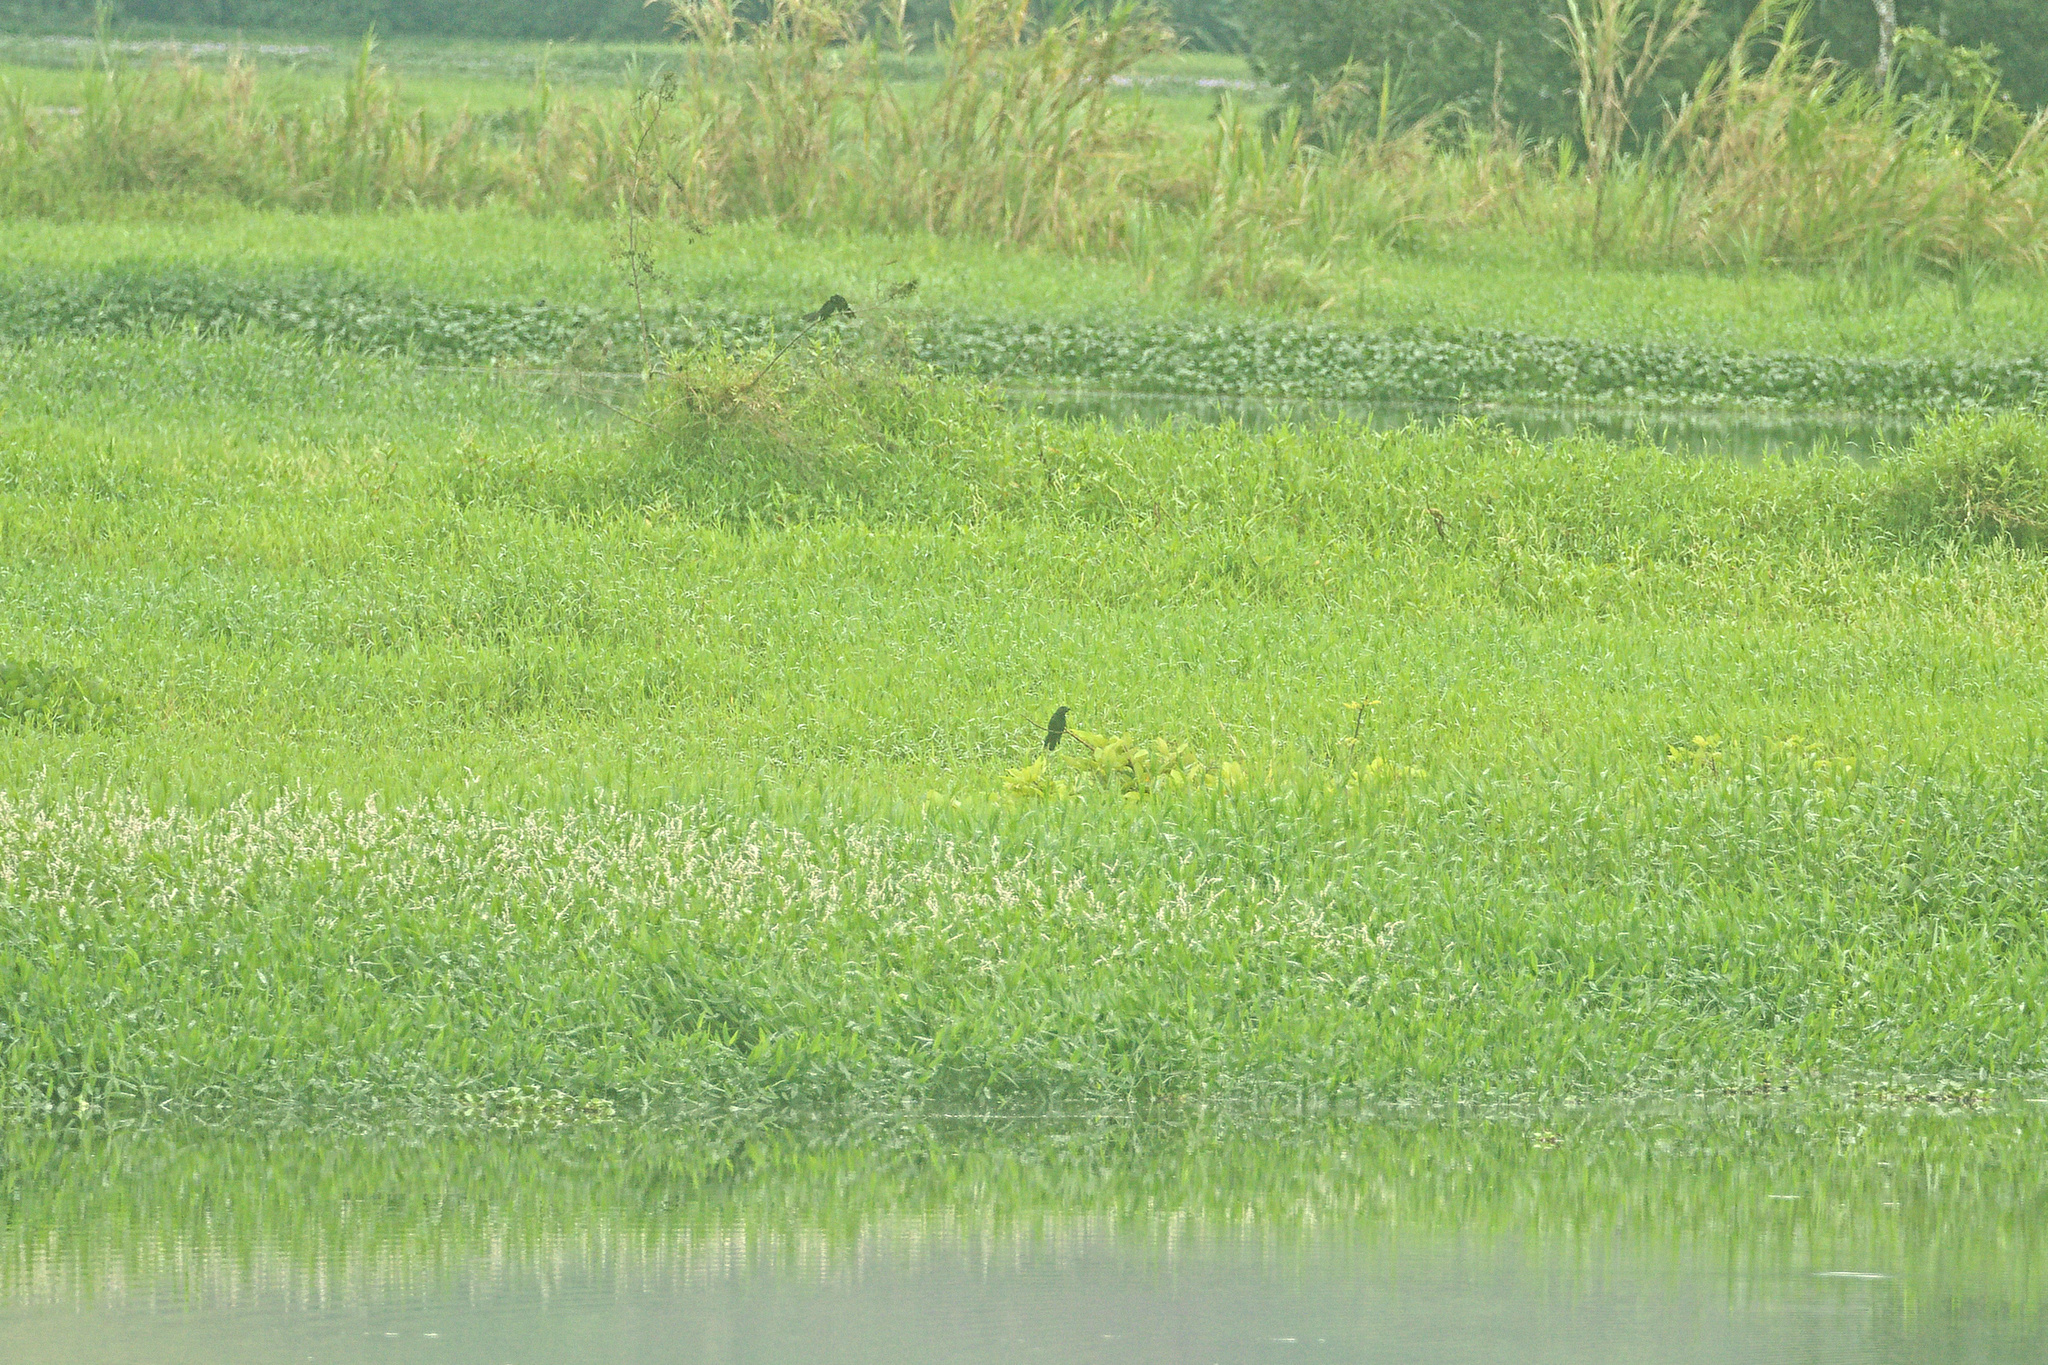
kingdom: Animalia
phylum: Chordata
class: Aves
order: Passeriformes
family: Icteridae
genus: Quiscalus
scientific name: Quiscalus mexicanus
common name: Great-tailed grackle
